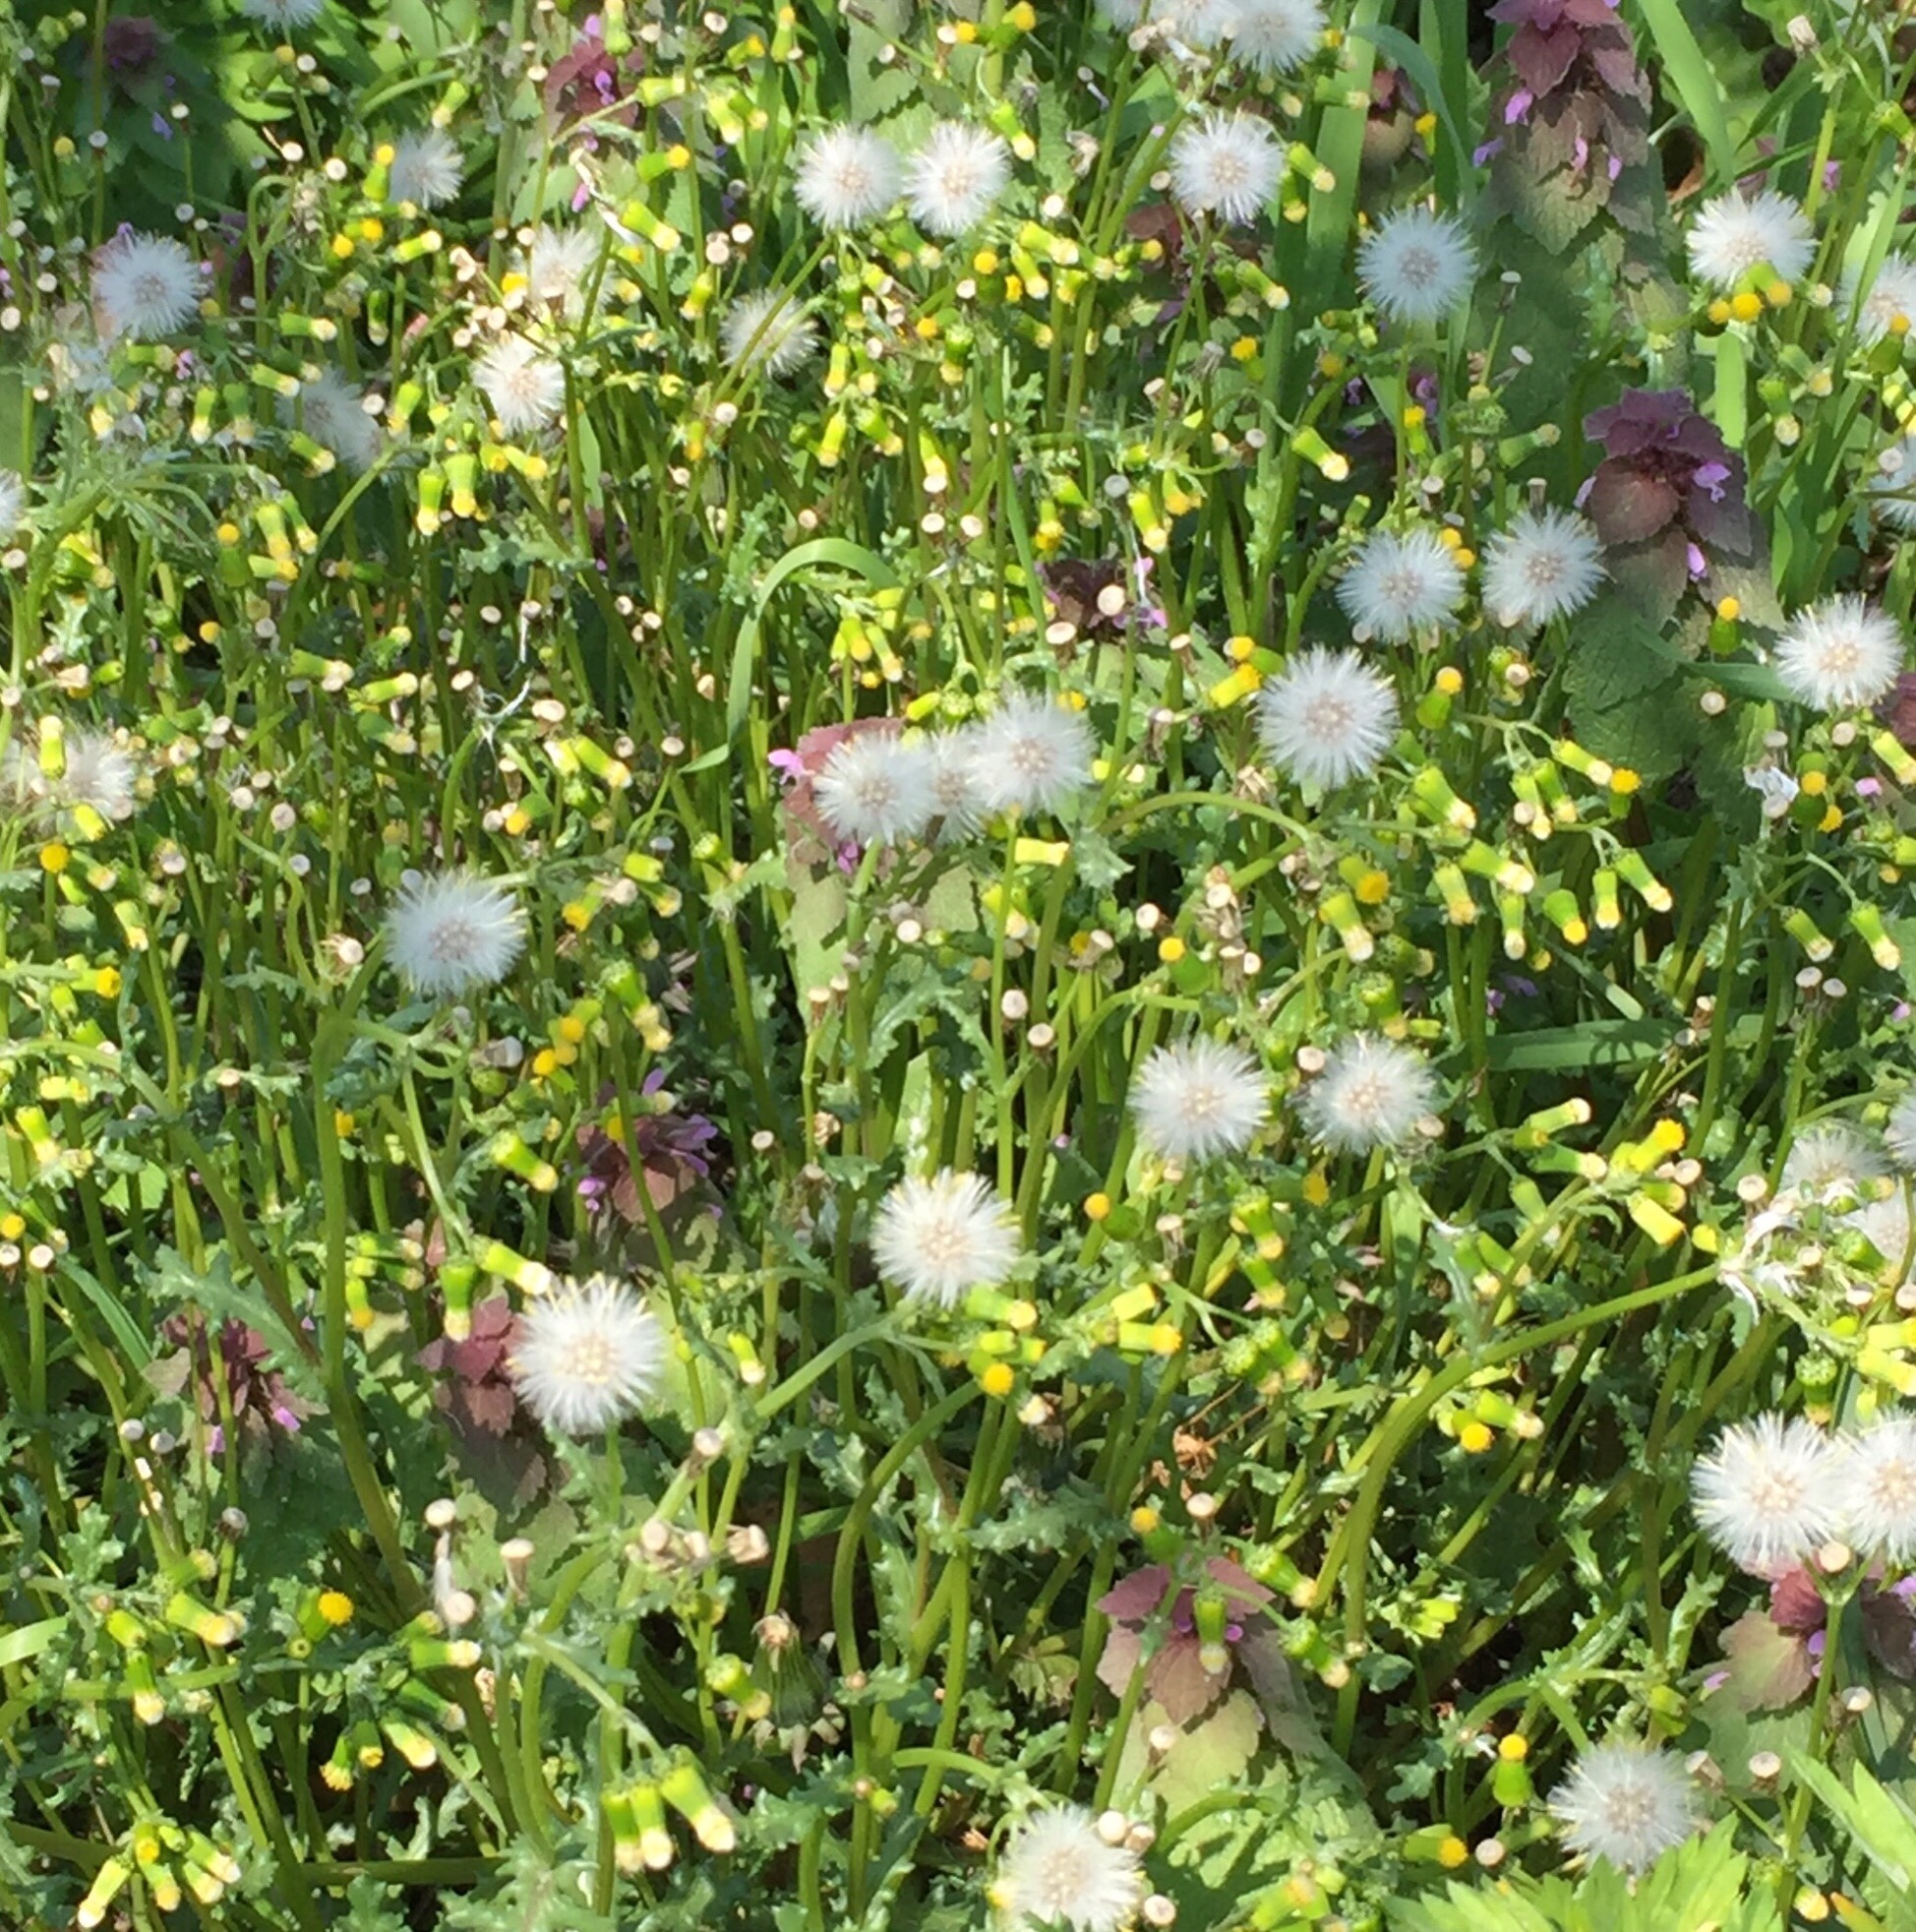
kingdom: Plantae
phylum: Tracheophyta
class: Magnoliopsida
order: Asterales
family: Asteraceae
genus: Senecio
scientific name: Senecio vulgaris
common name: Old-man-in-the-spring
